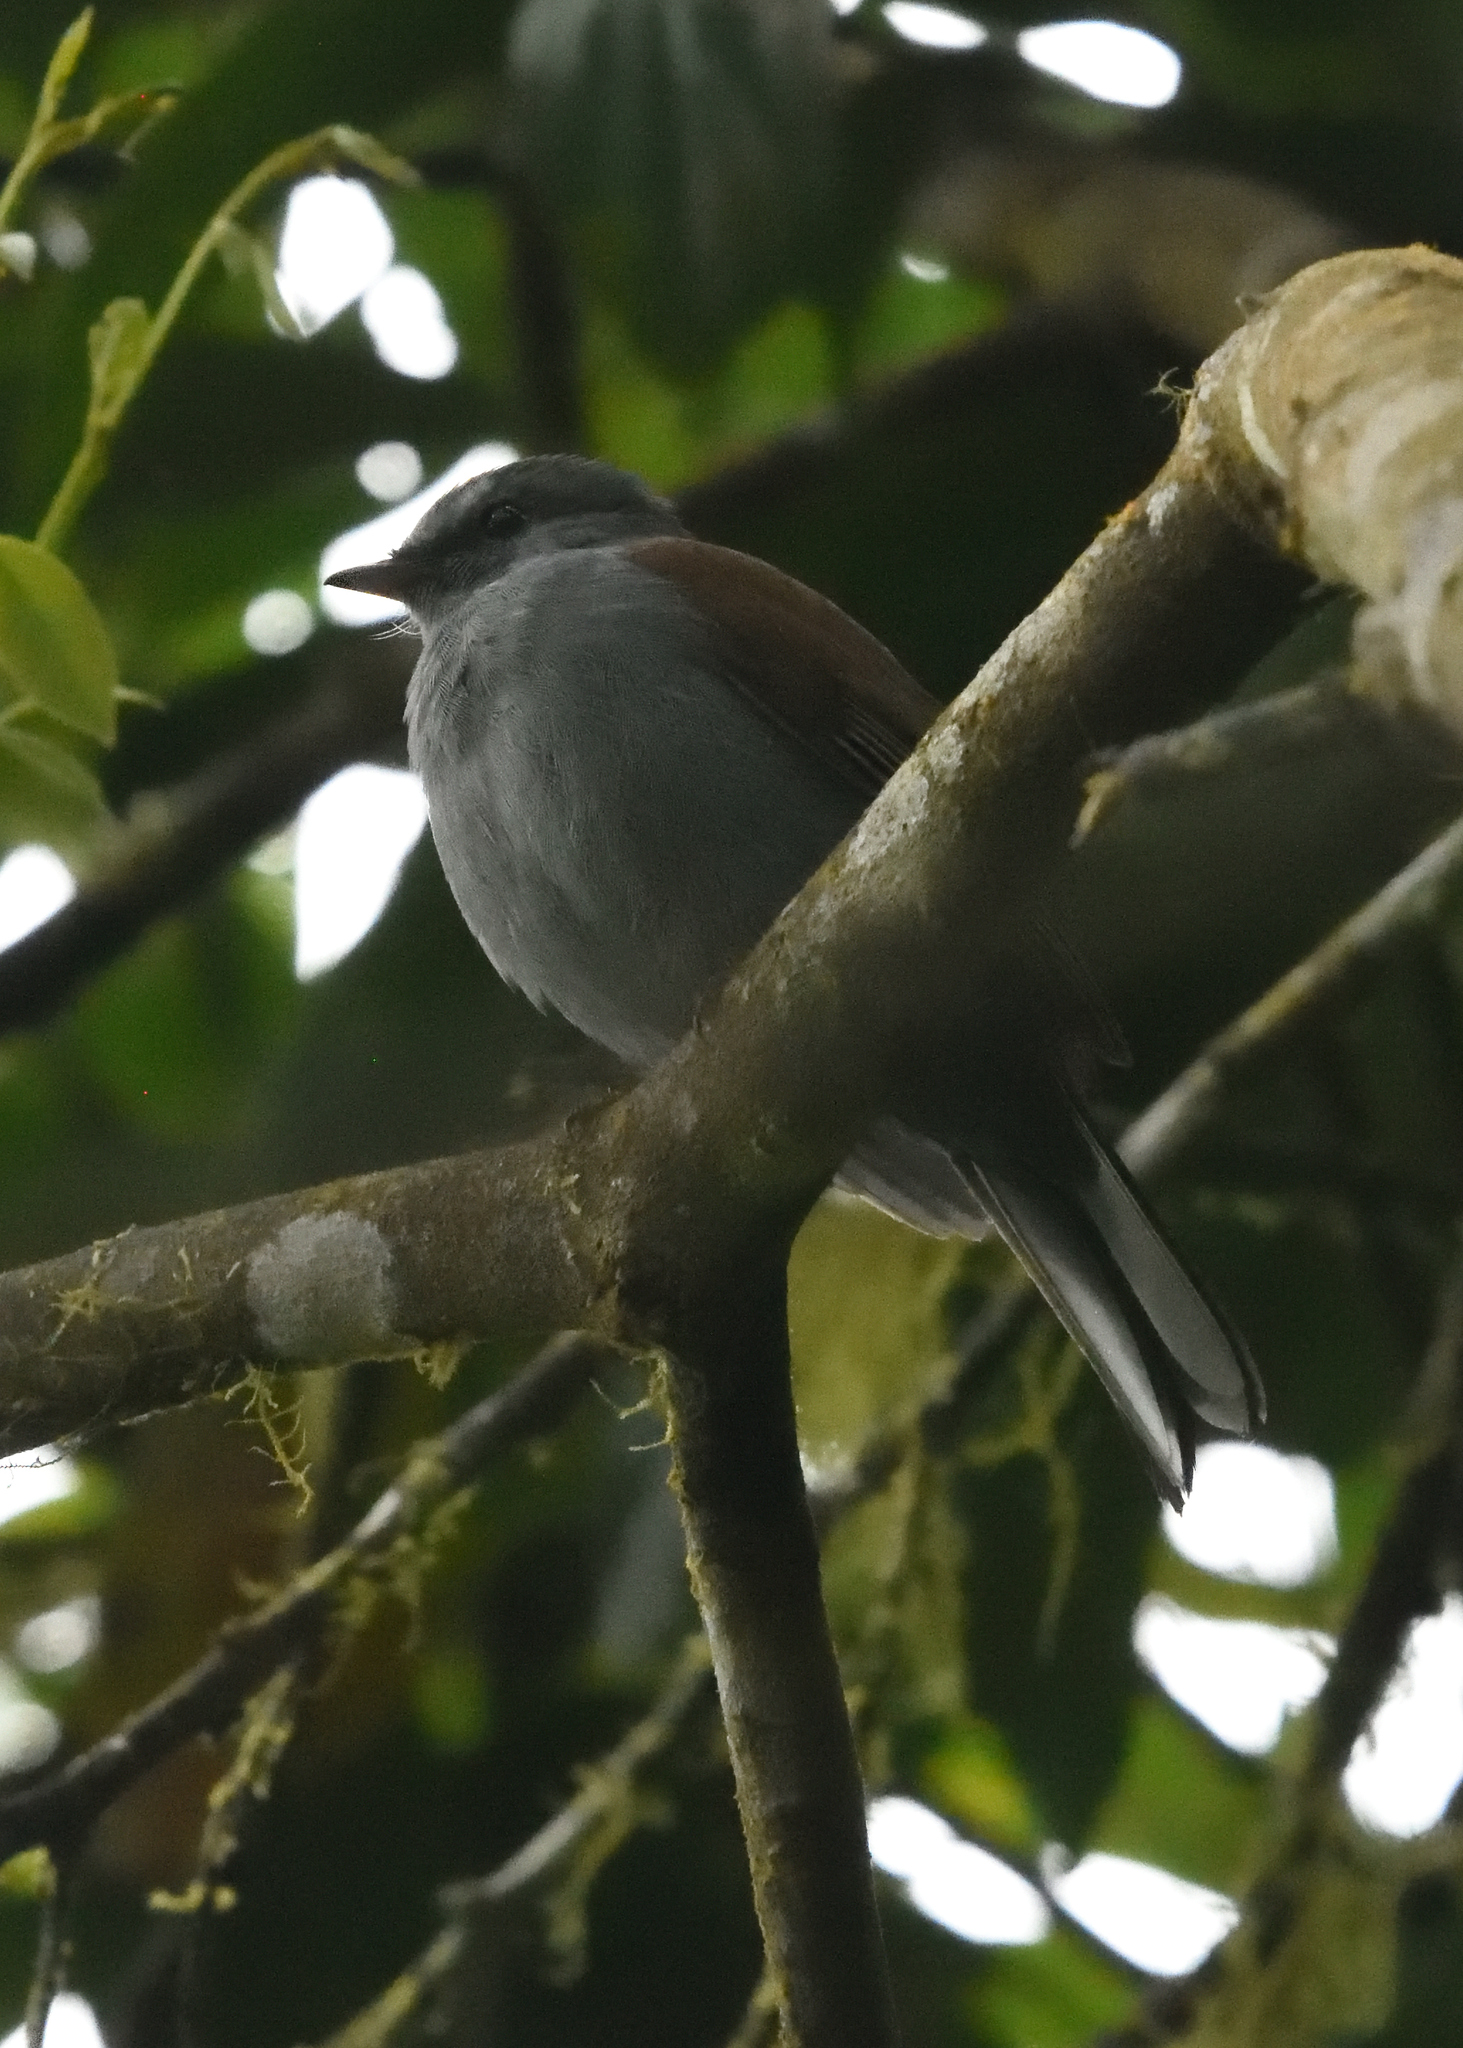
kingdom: Animalia
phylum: Chordata
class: Aves
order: Passeriformes
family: Turdidae
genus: Myadestes
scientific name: Myadestes ralloides
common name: Andean solitaire
